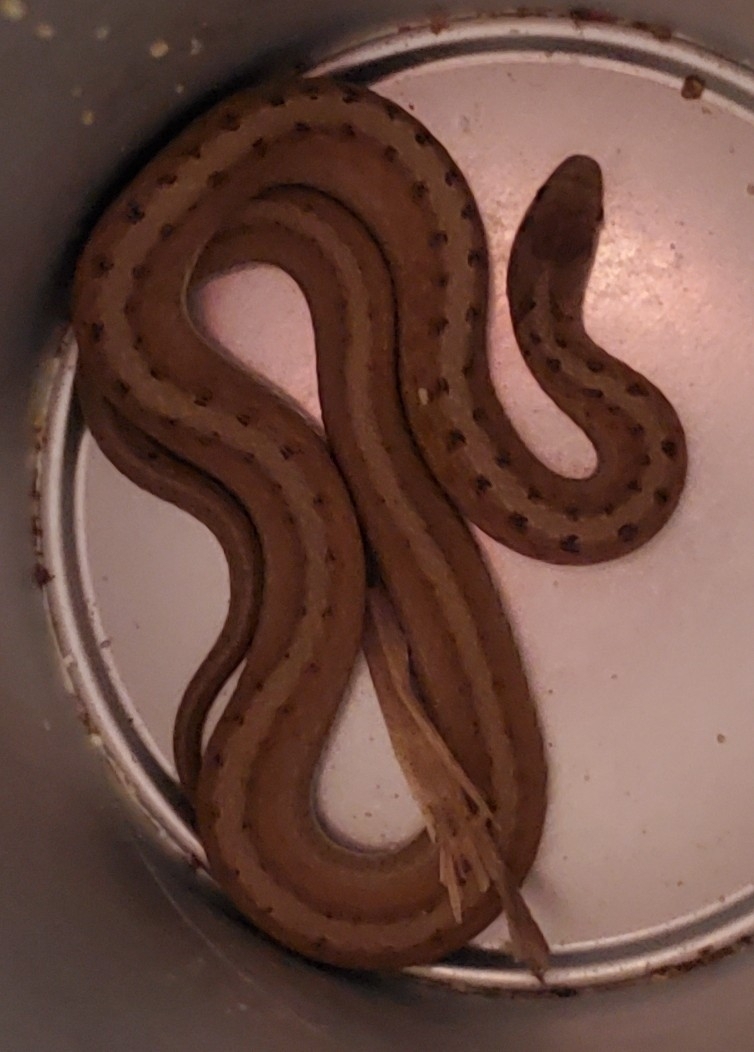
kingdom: Animalia
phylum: Chordata
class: Squamata
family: Colubridae
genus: Storeria
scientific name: Storeria dekayi
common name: (dekay’s) brown snake
